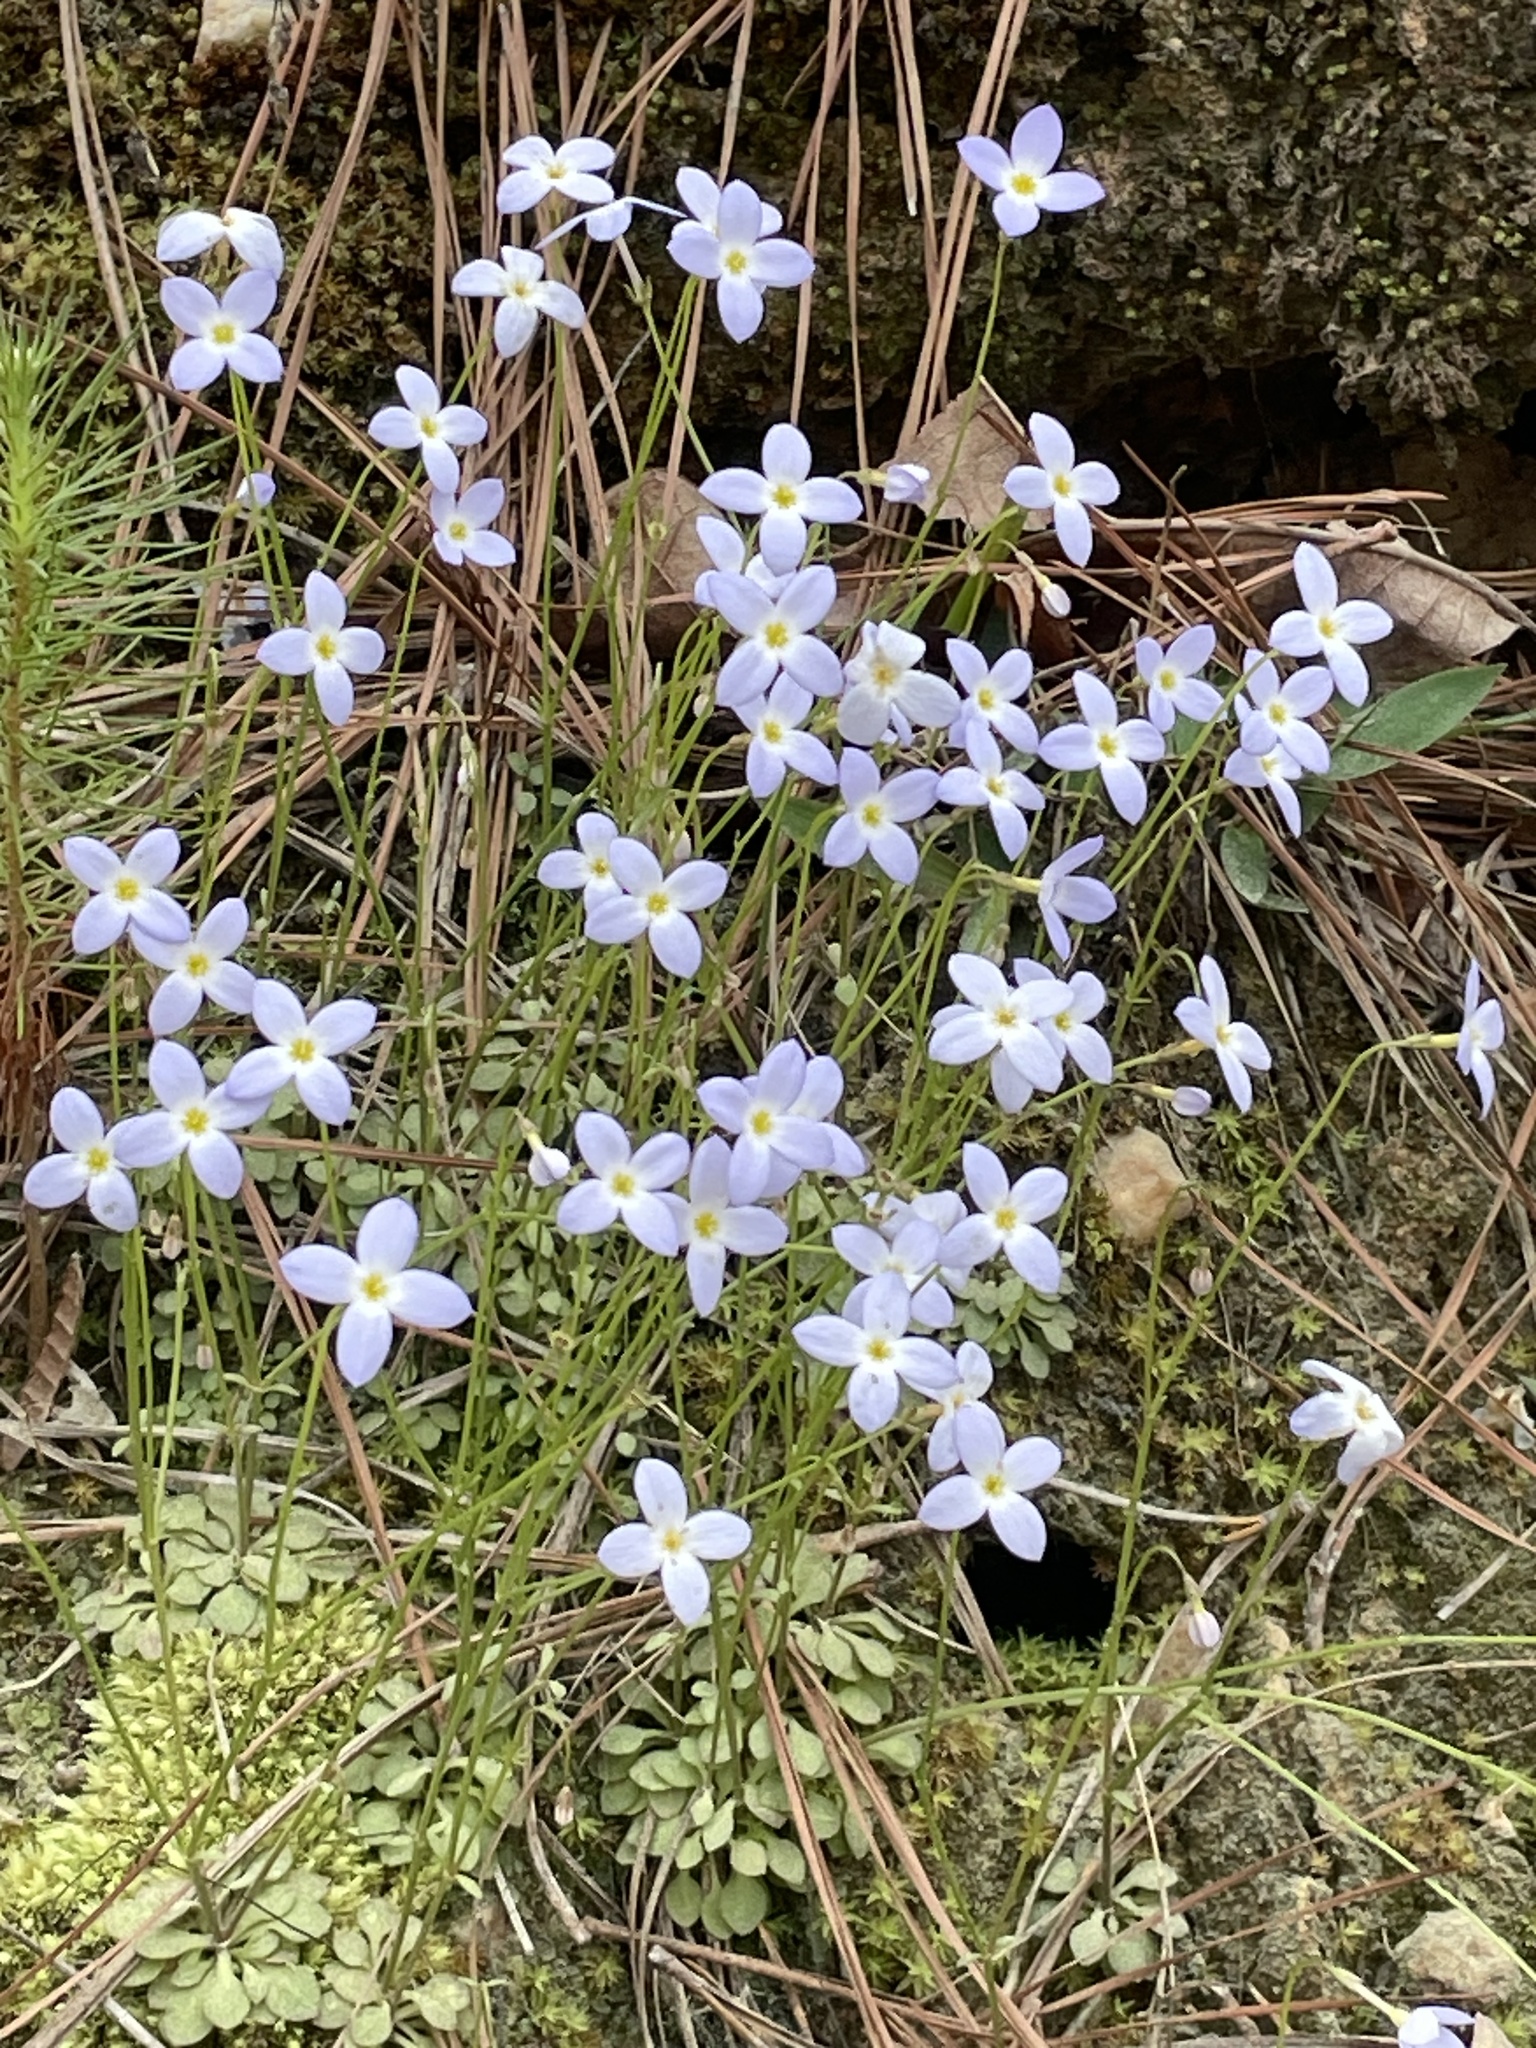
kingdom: Plantae
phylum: Tracheophyta
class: Magnoliopsida
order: Gentianales
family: Rubiaceae
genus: Houstonia
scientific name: Houstonia caerulea
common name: Bluets
